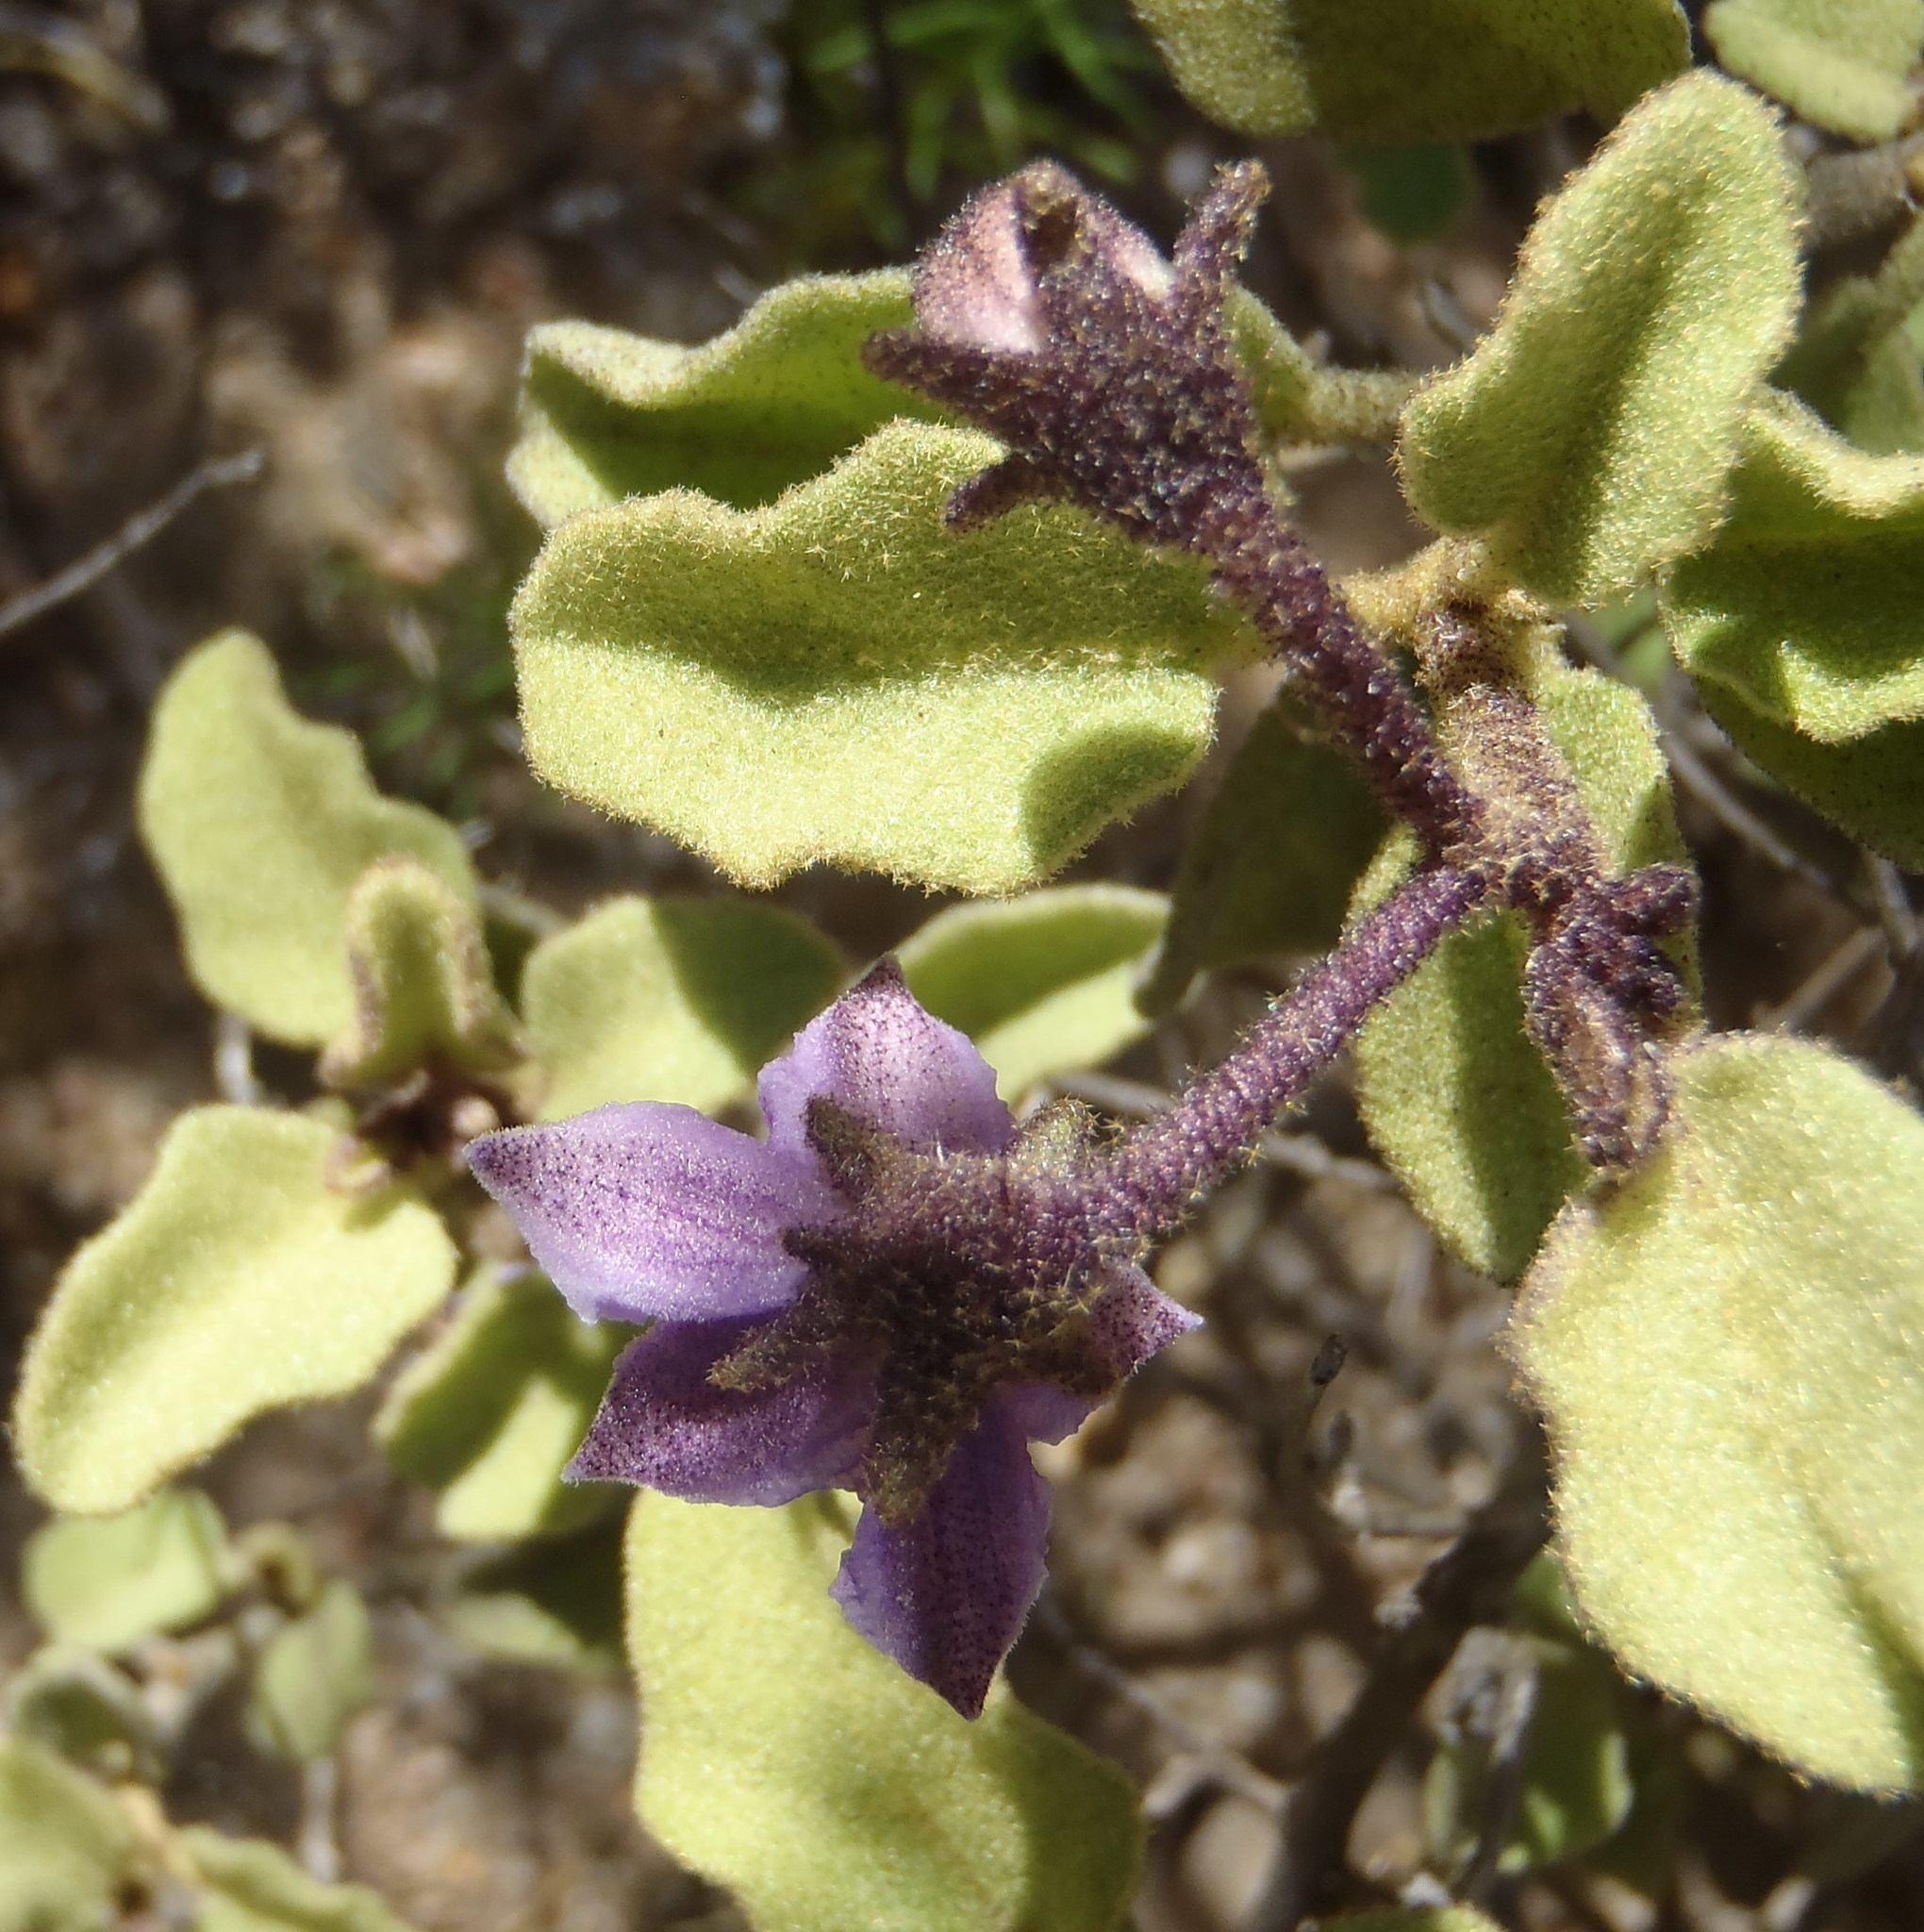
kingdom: Plantae
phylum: Tracheophyta
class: Magnoliopsida
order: Solanales
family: Solanaceae
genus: Solanum
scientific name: Solanum tomentosum
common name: Wild aubergine
